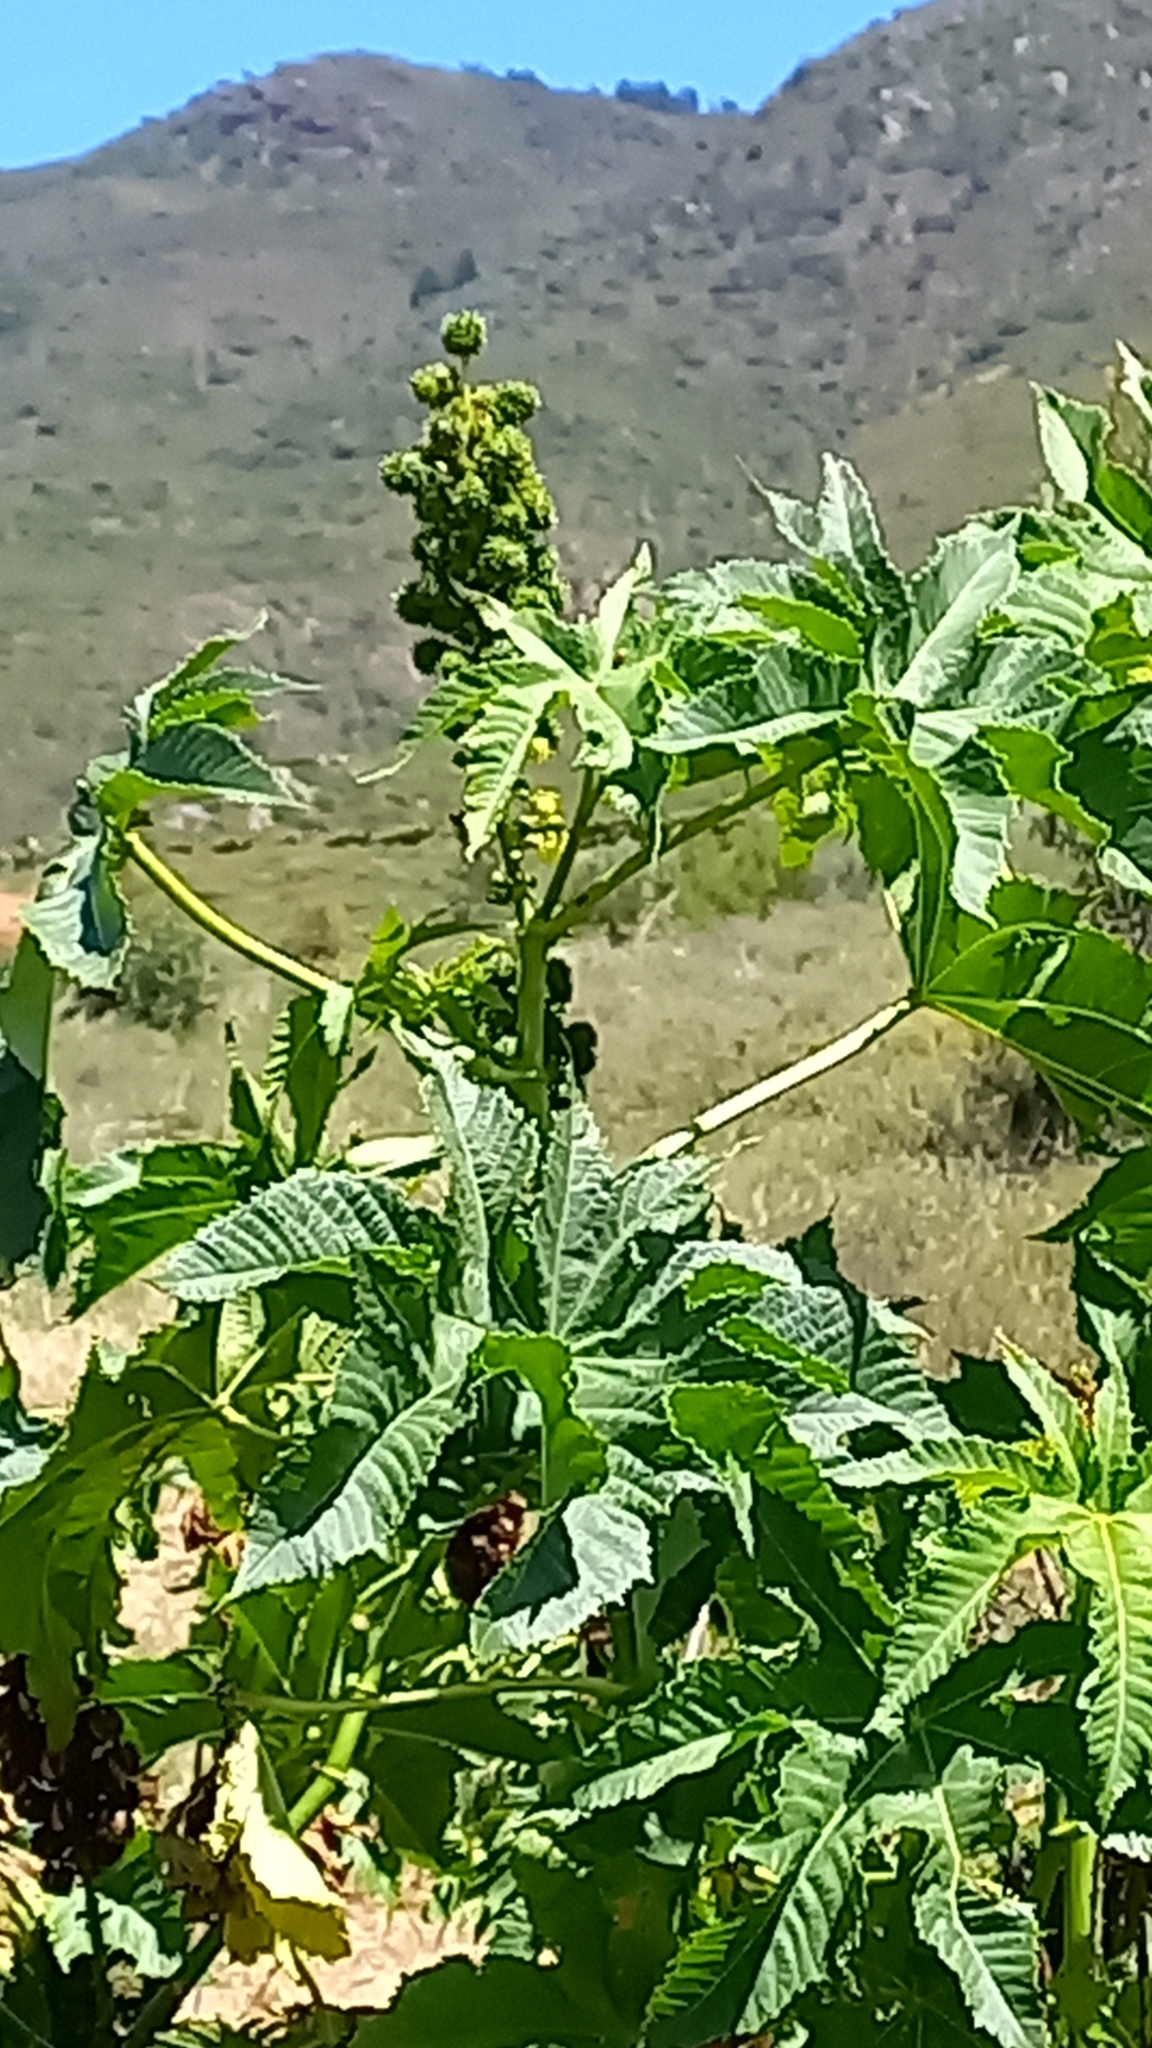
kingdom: Plantae
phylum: Tracheophyta
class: Magnoliopsida
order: Malpighiales
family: Euphorbiaceae
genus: Ricinus
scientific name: Ricinus communis
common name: Castor-oil-plant
